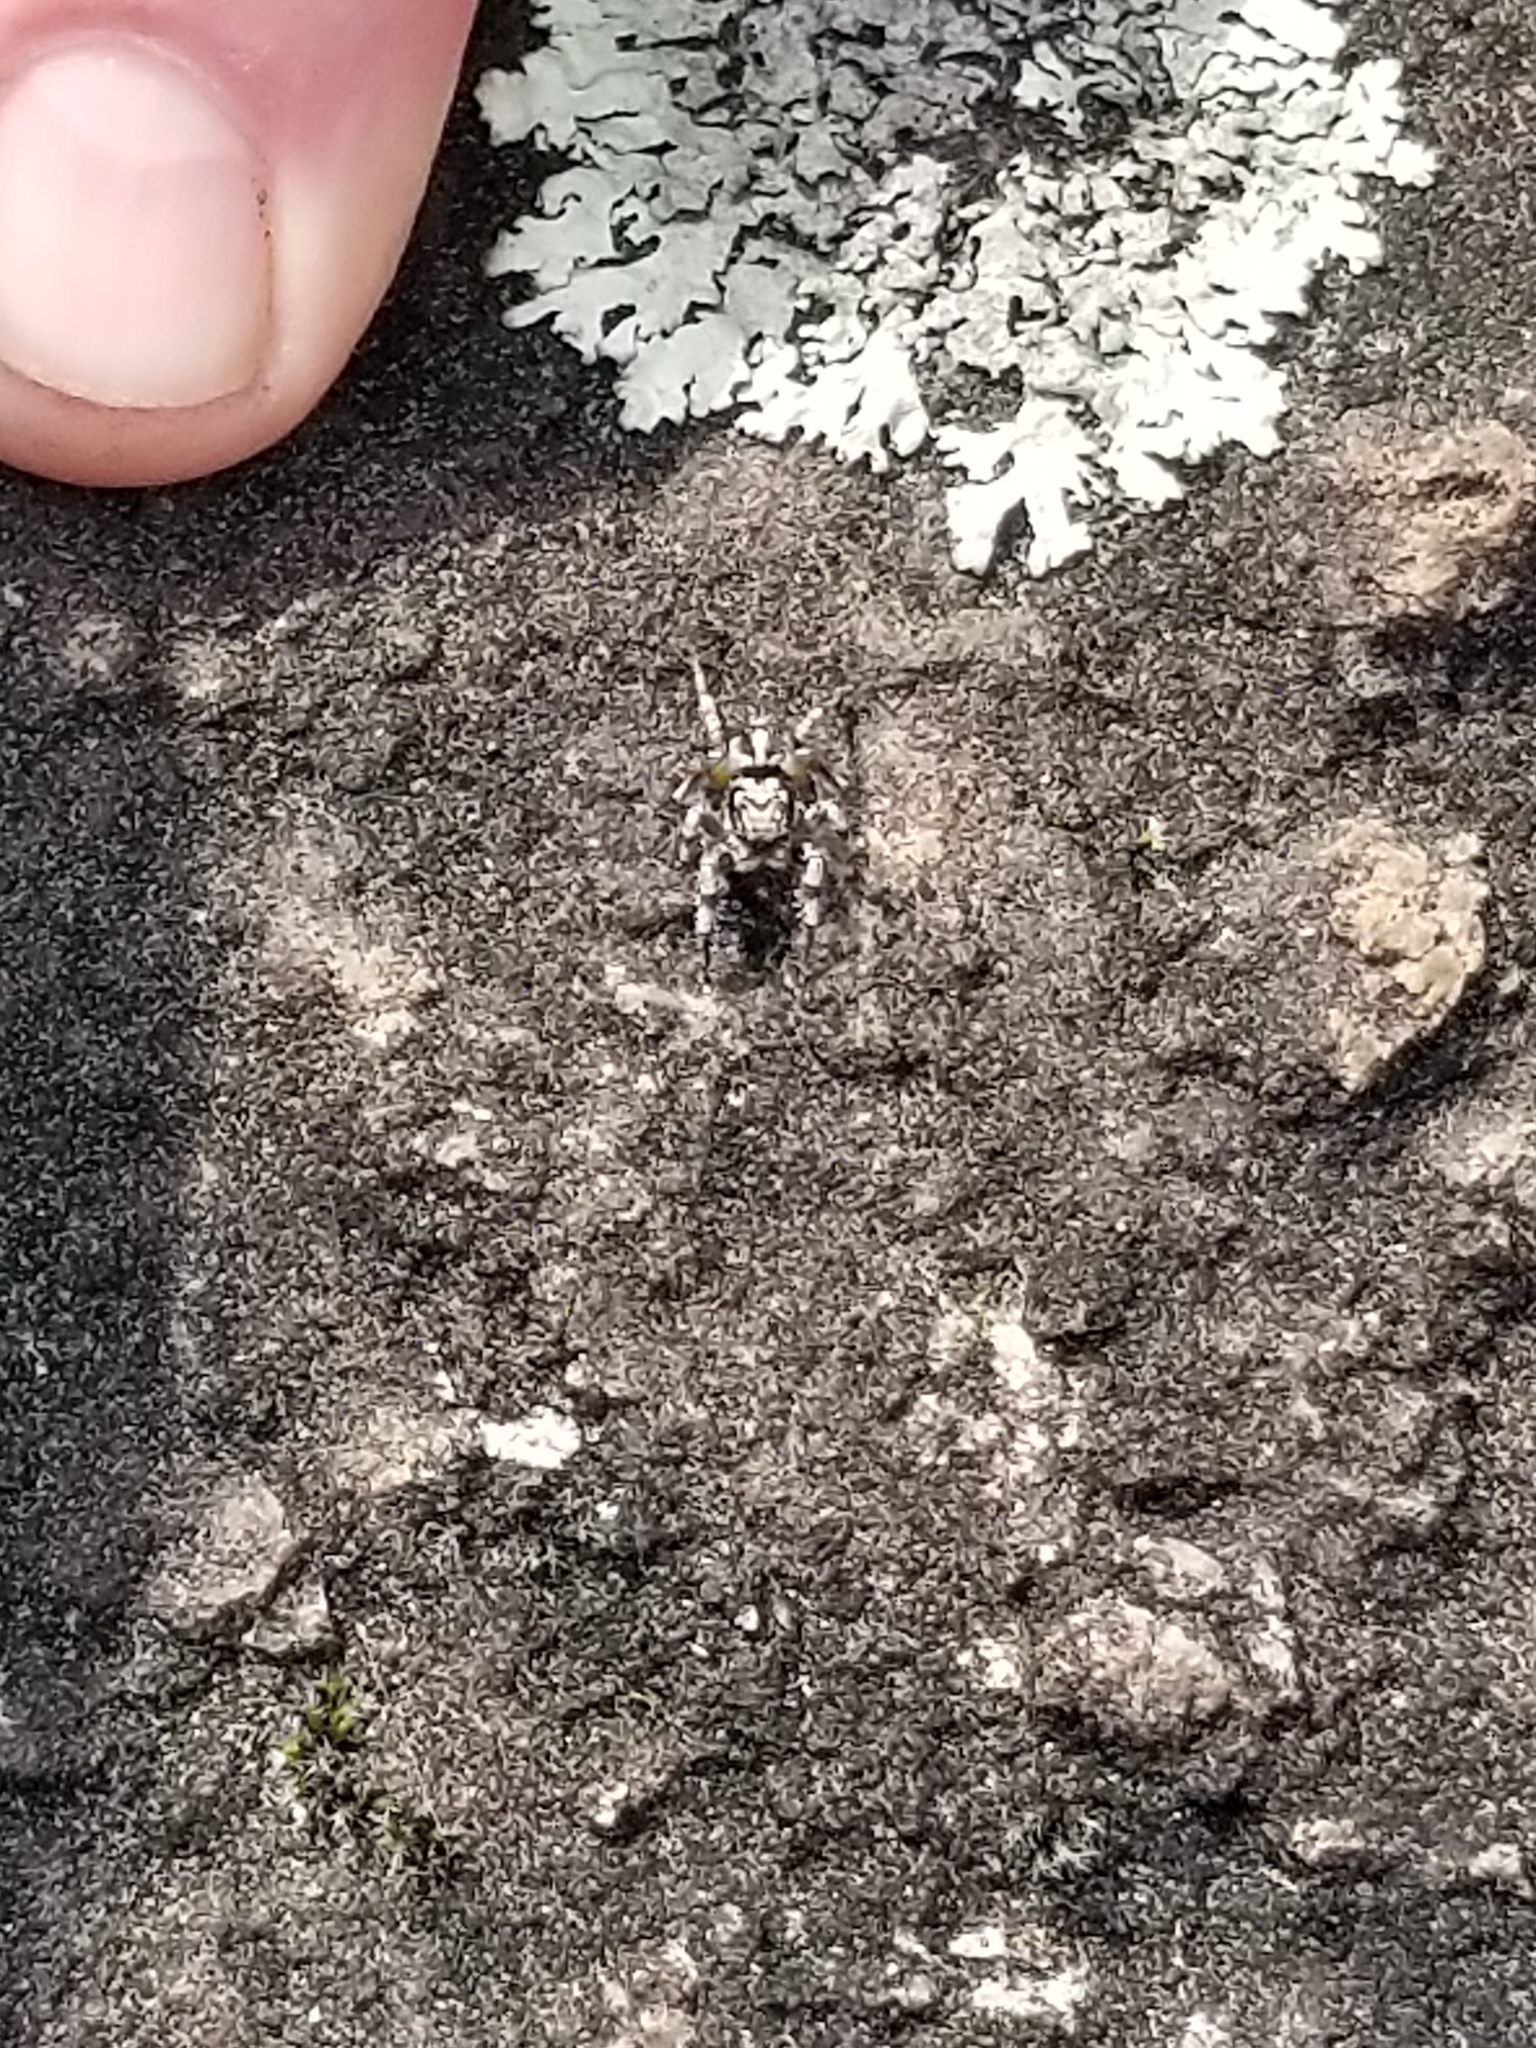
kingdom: Animalia
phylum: Arthropoda
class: Arachnida
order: Araneae
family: Salticidae
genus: Habronattus
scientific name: Habronattus sabulosus
